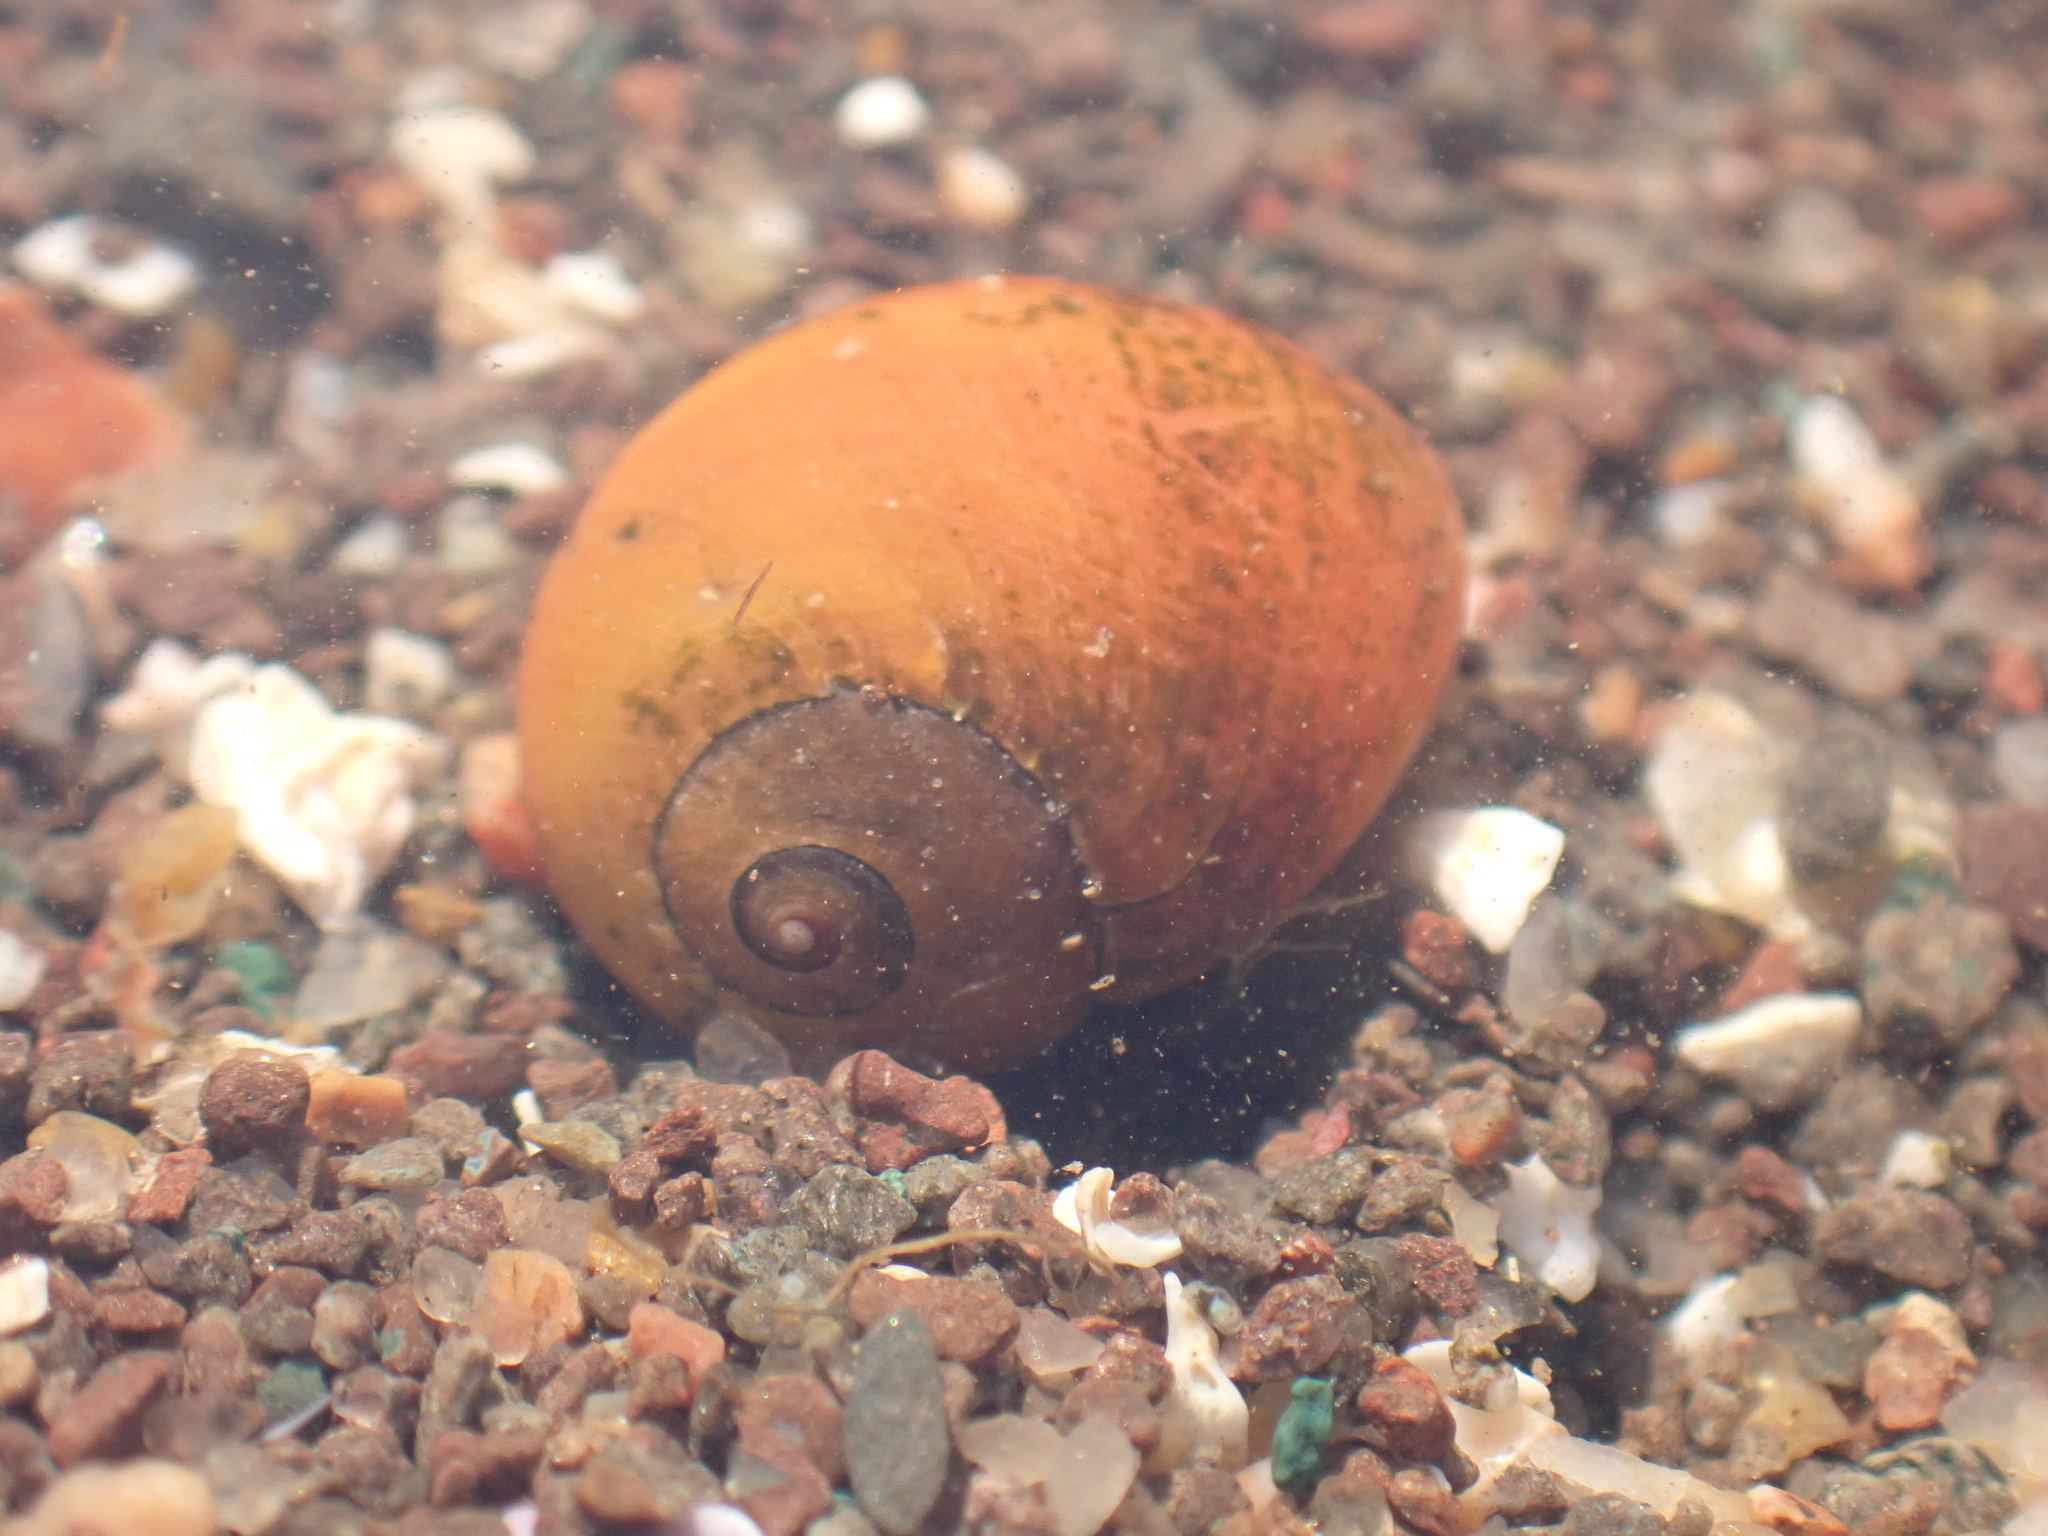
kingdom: Animalia
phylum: Mollusca
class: Gastropoda
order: Littorinimorpha
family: Littorinidae
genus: Littorina
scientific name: Littorina obtusata
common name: Flat periwinkle
